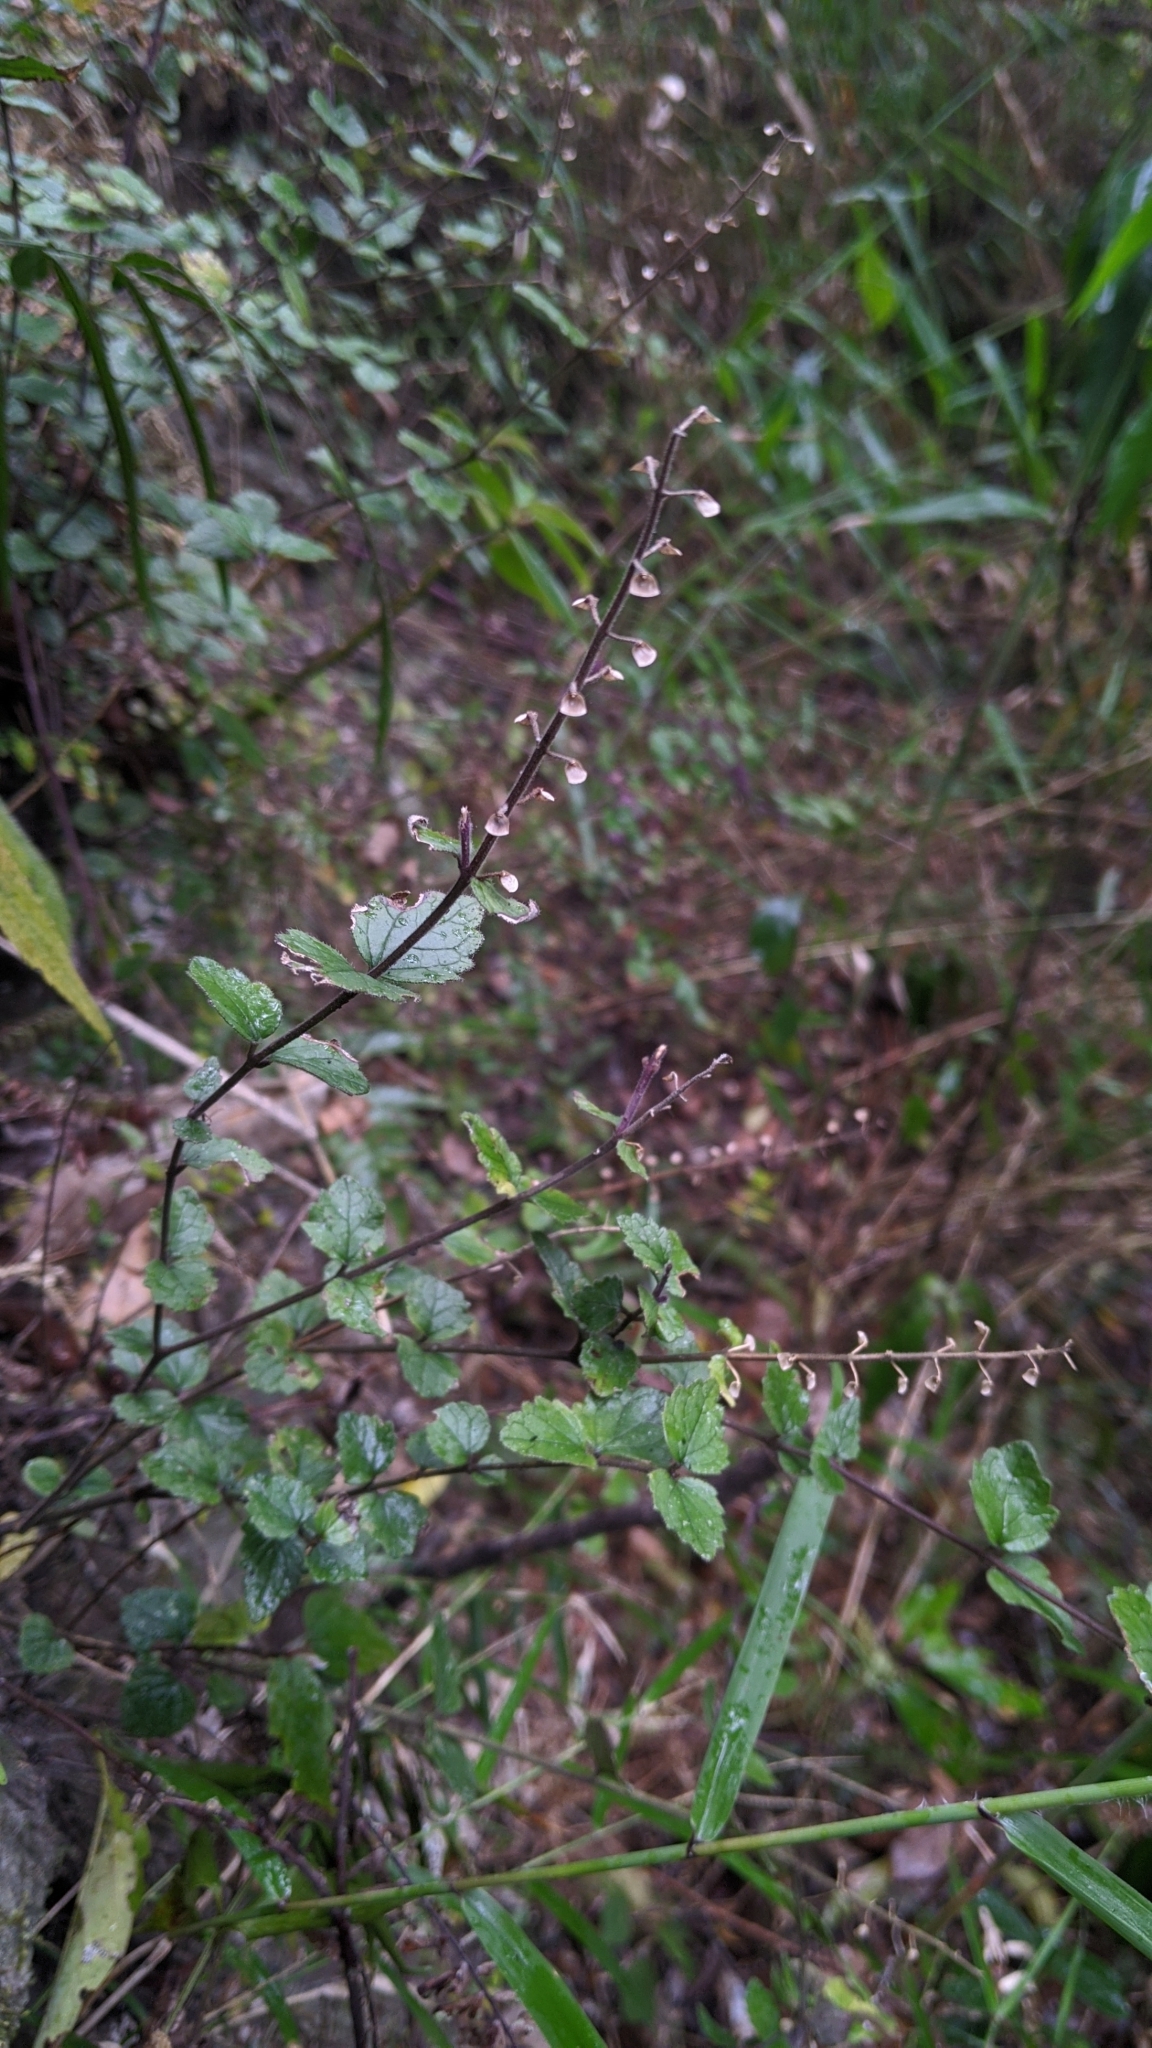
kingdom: Plantae
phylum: Tracheophyta
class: Magnoliopsida
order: Lamiales
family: Lamiaceae
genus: Scutellaria
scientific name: Scutellaria indica
